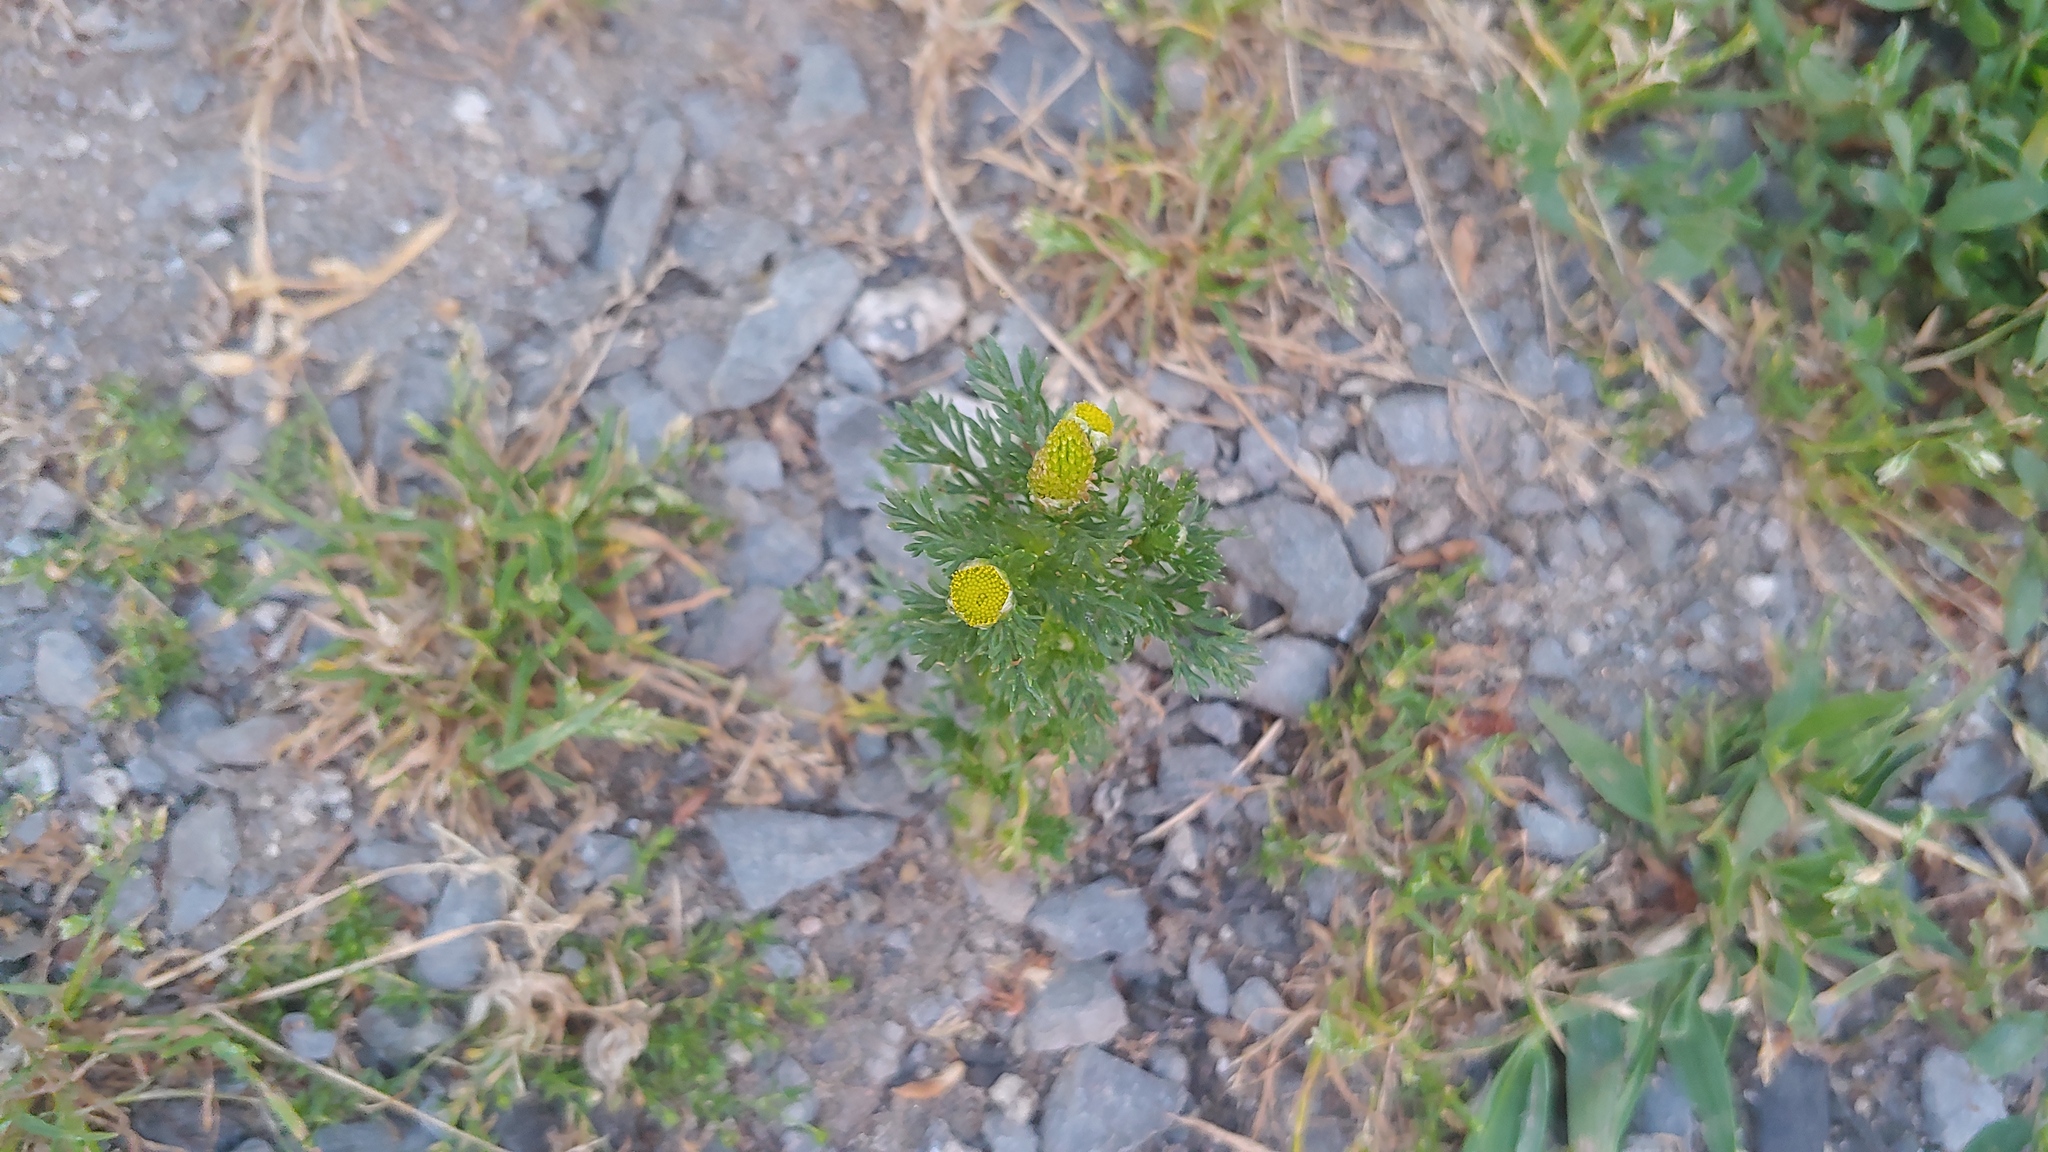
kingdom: Plantae
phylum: Tracheophyta
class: Magnoliopsida
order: Asterales
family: Asteraceae
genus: Matricaria
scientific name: Matricaria discoidea
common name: Disc mayweed
